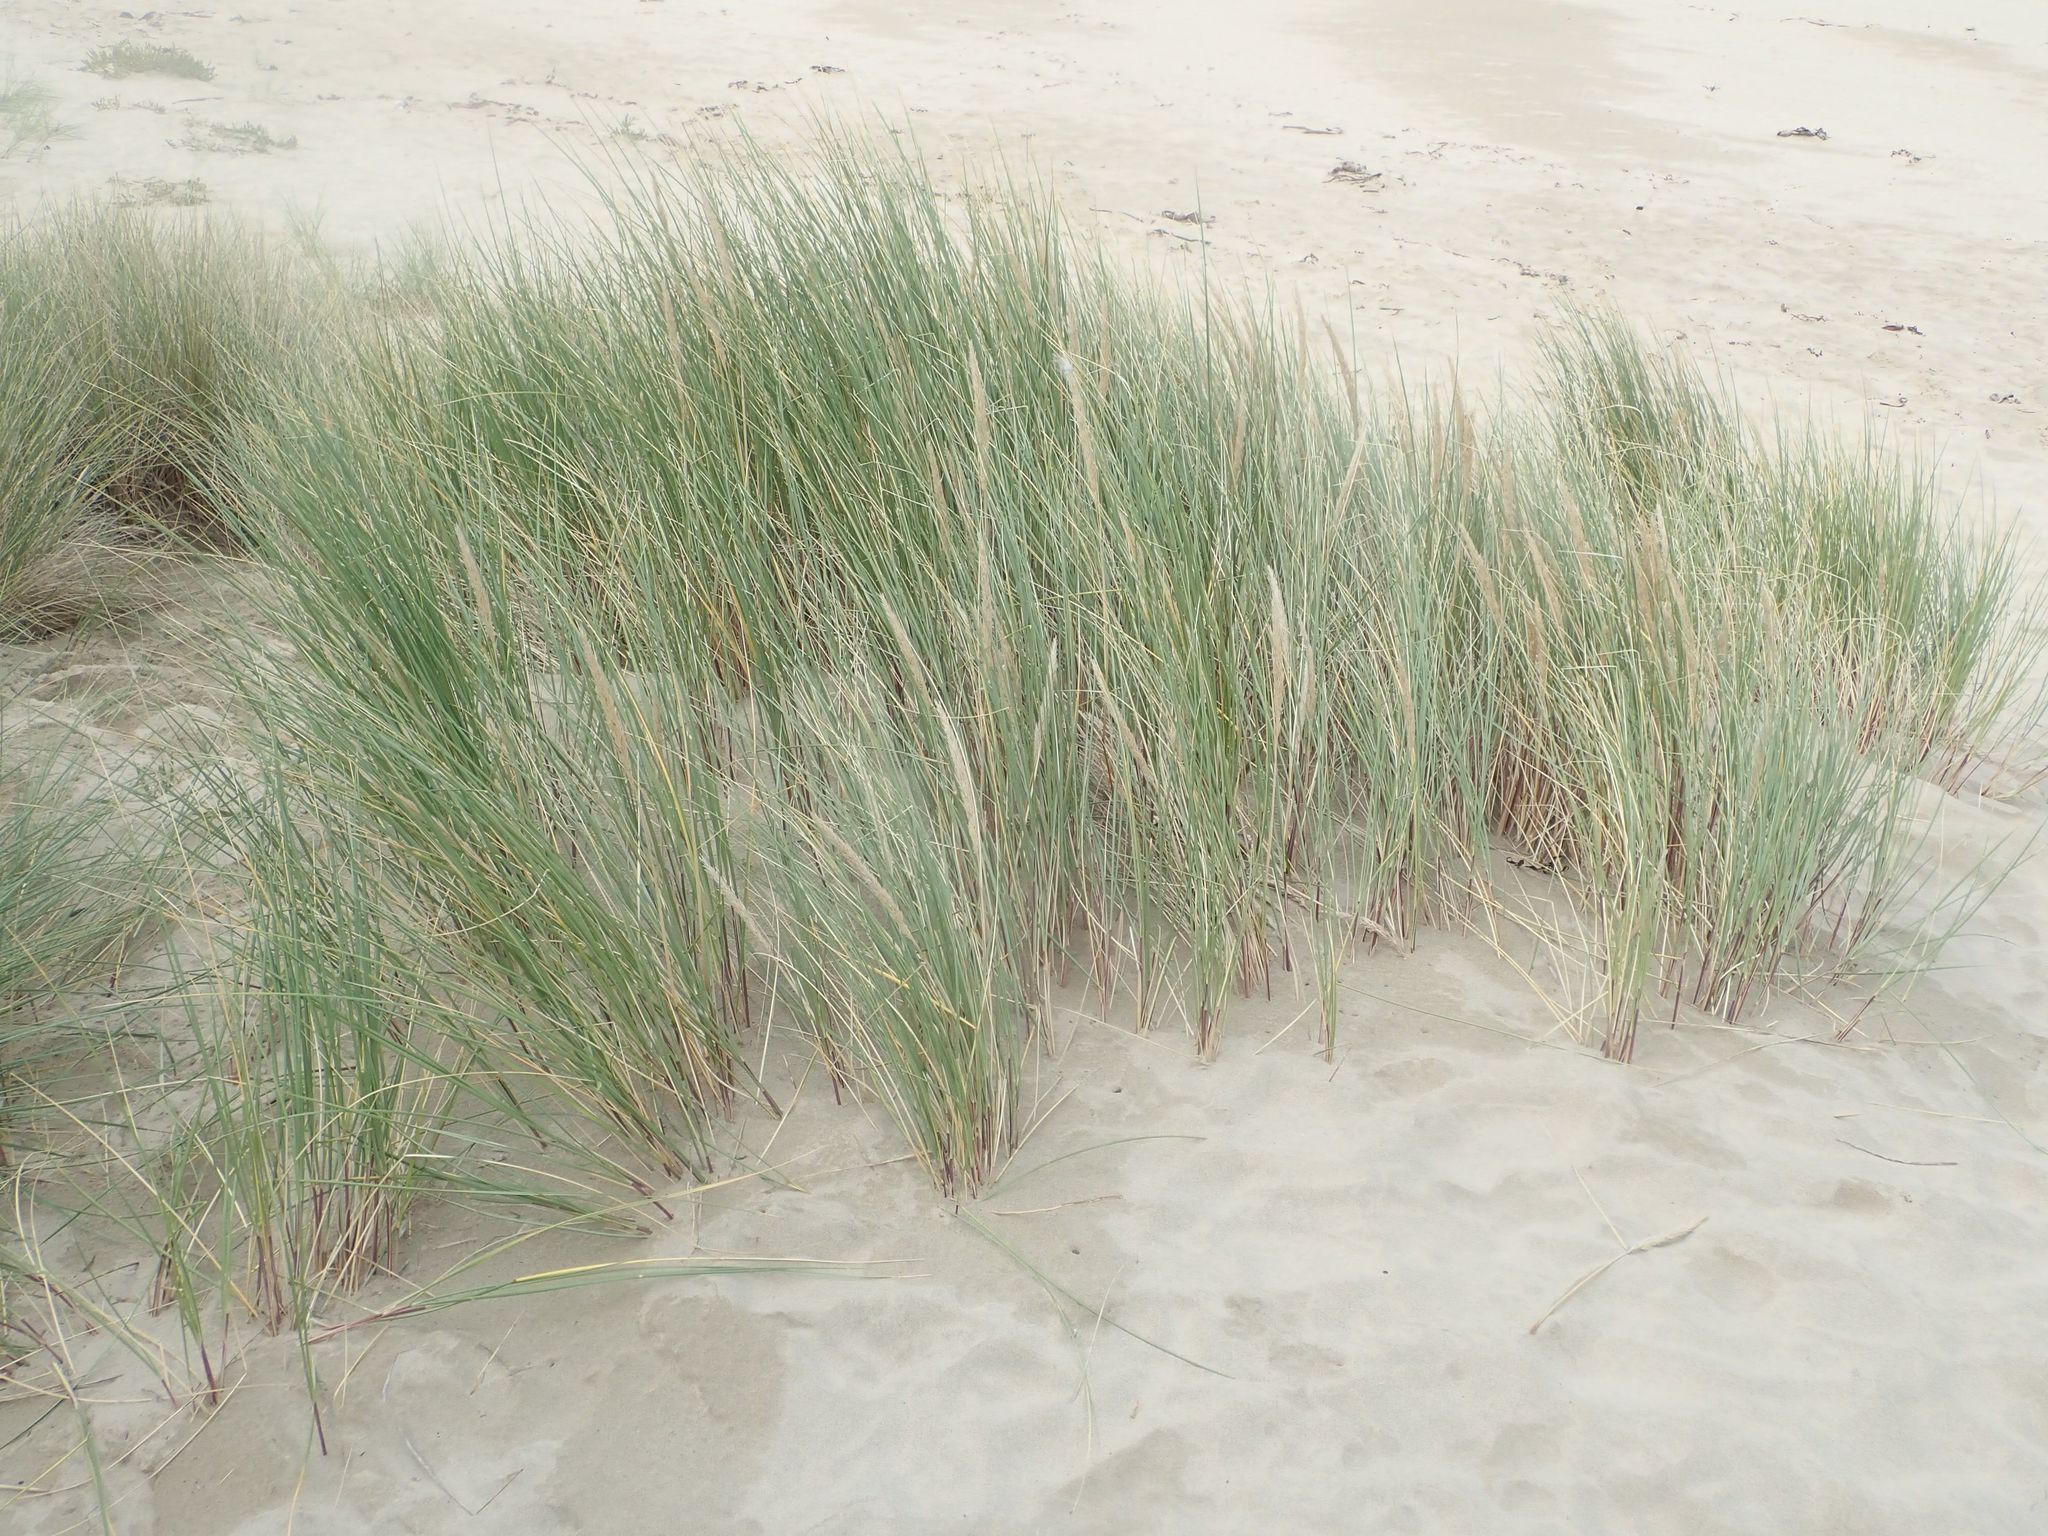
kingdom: Plantae
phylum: Tracheophyta
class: Liliopsida
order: Poales
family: Poaceae
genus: Calamagrostis
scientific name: Calamagrostis arenaria
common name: European beachgrass
